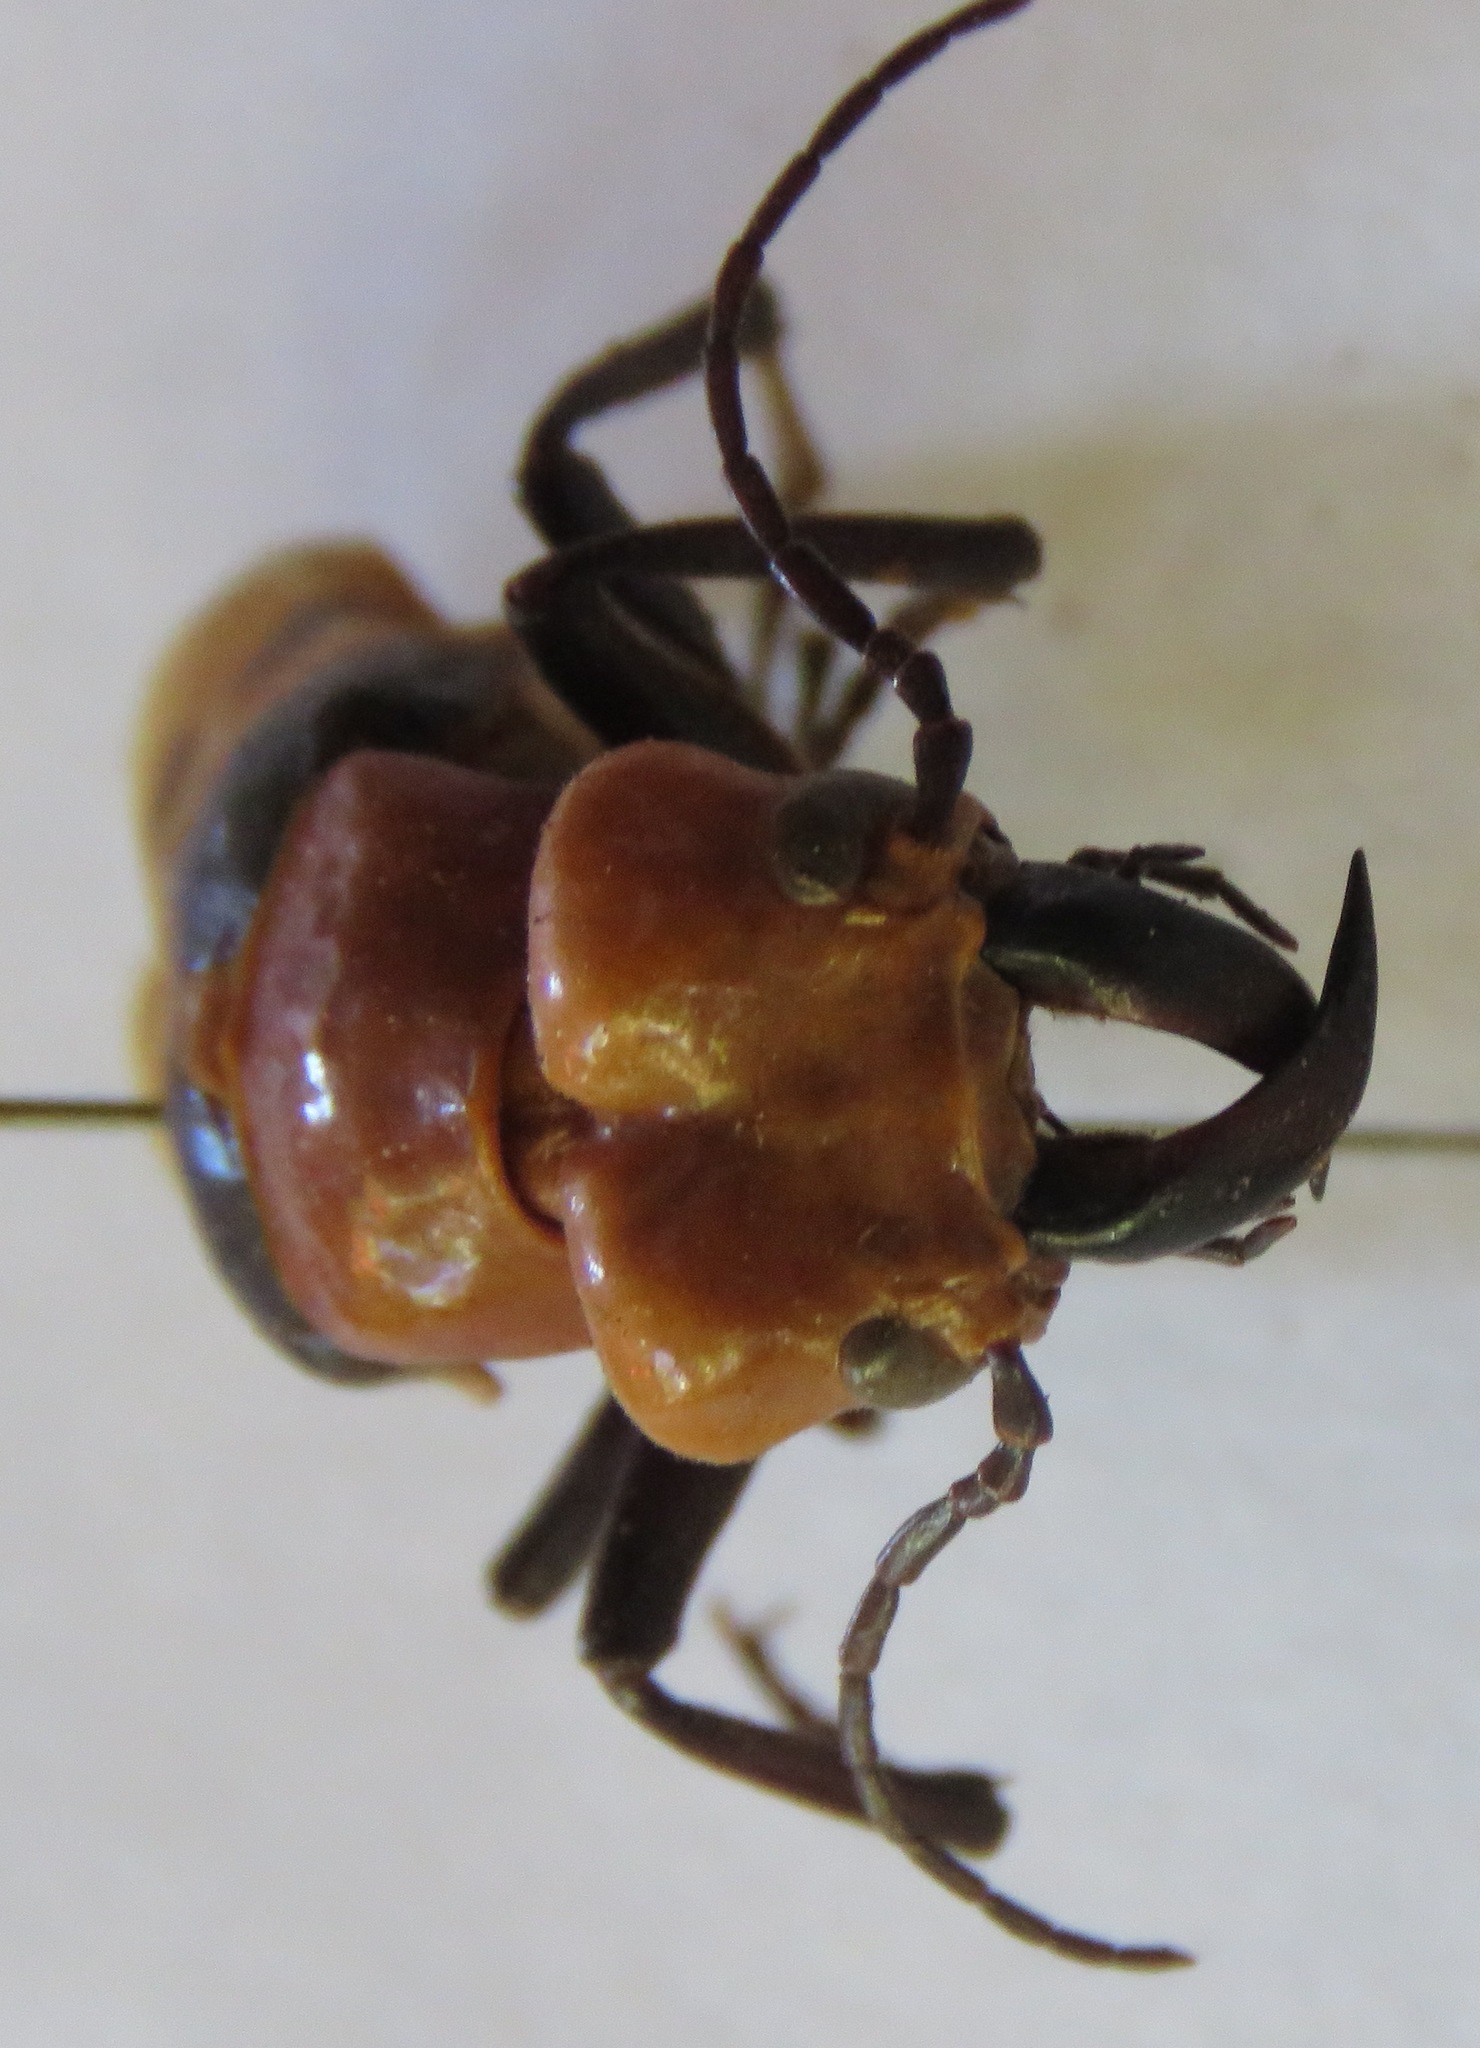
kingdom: Animalia
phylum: Arthropoda
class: Insecta
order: Coleoptera
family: Meloidae
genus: Cissites
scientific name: Cissites auriculata
